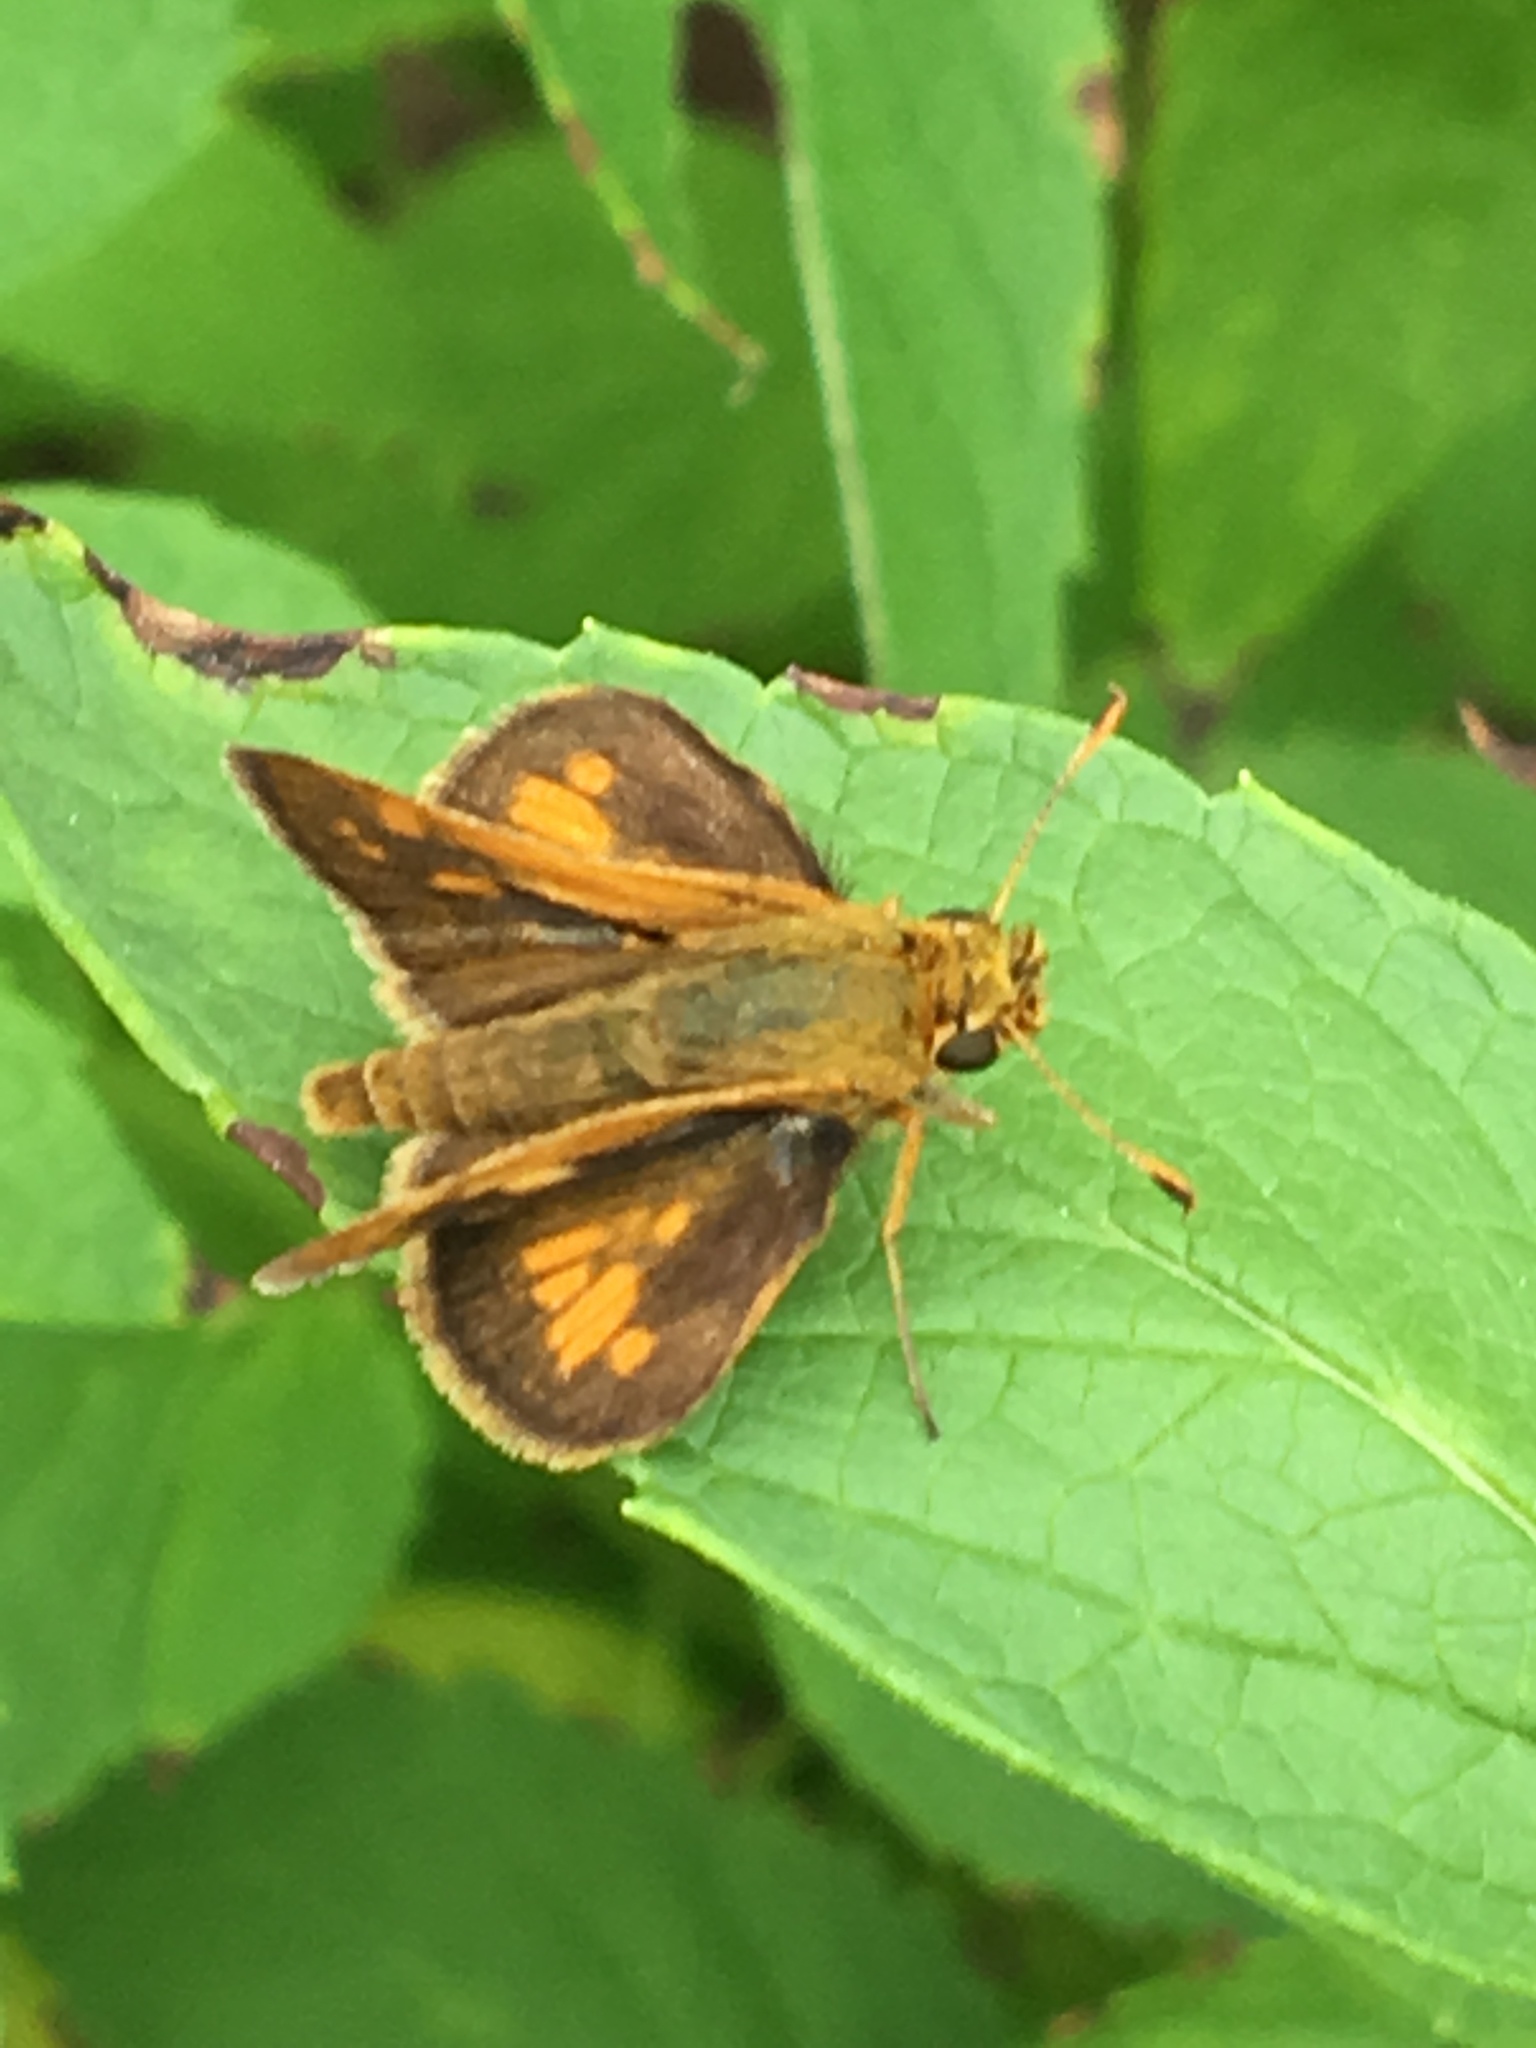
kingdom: Animalia
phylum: Arthropoda
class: Insecta
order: Lepidoptera
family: Hesperiidae
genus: Polites
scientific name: Polites coras
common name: Peck's skipper
